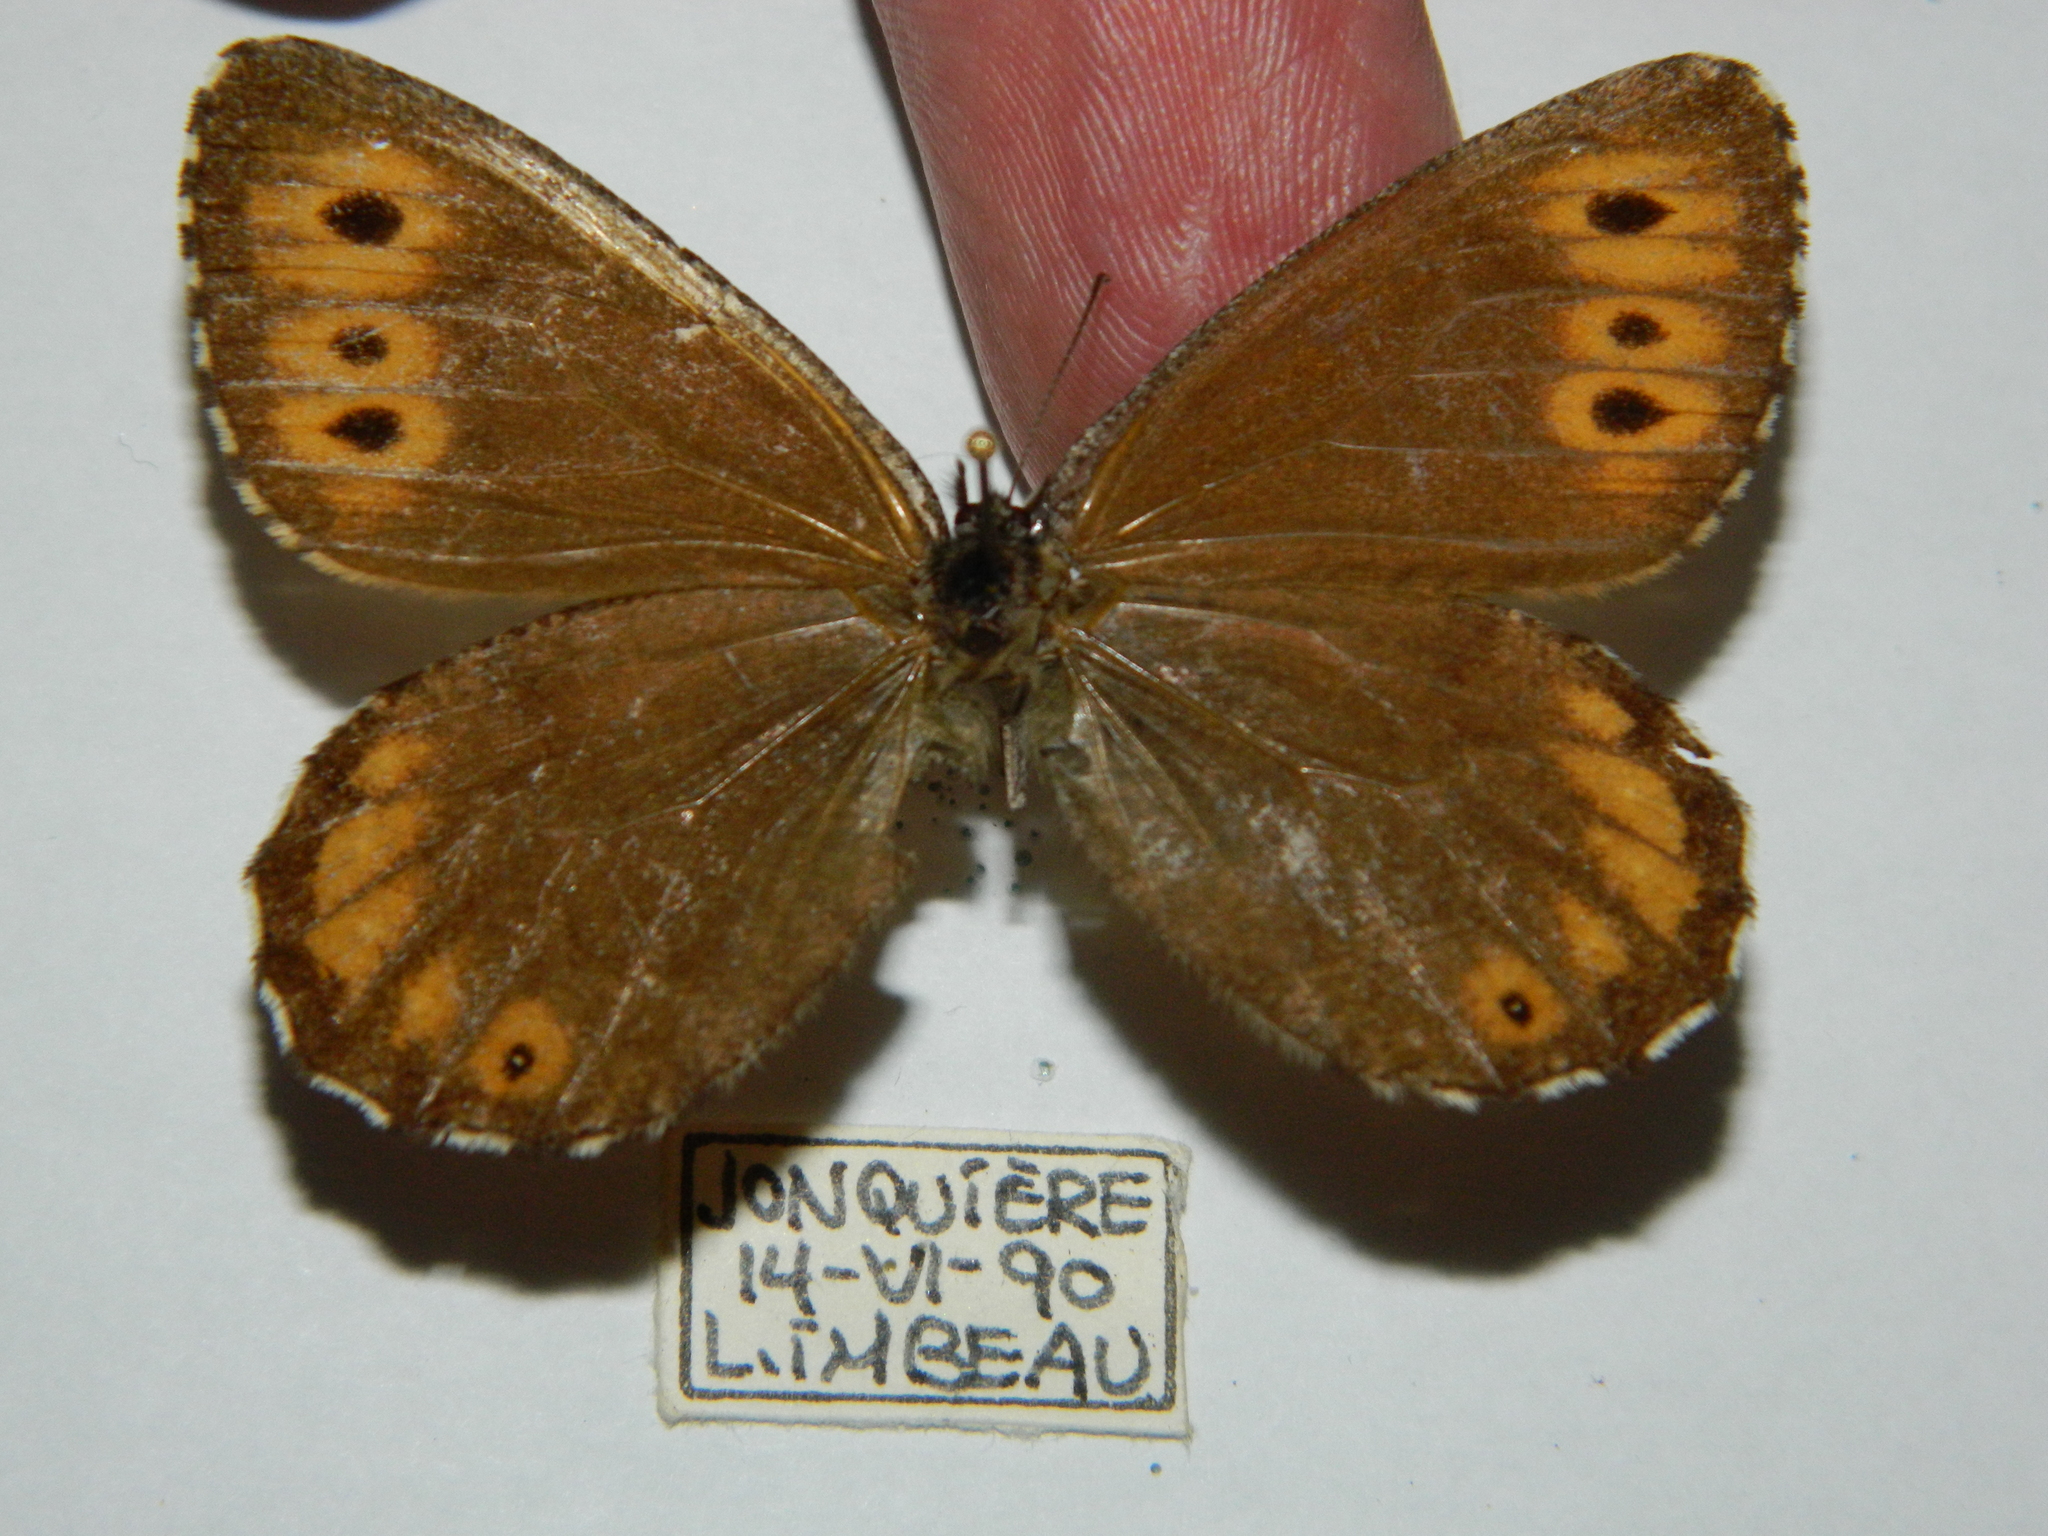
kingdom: Animalia
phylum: Arthropoda
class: Insecta
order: Lepidoptera
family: Nymphalidae
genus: Oeneis
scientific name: Oeneis jutta
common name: Baltic grayling
